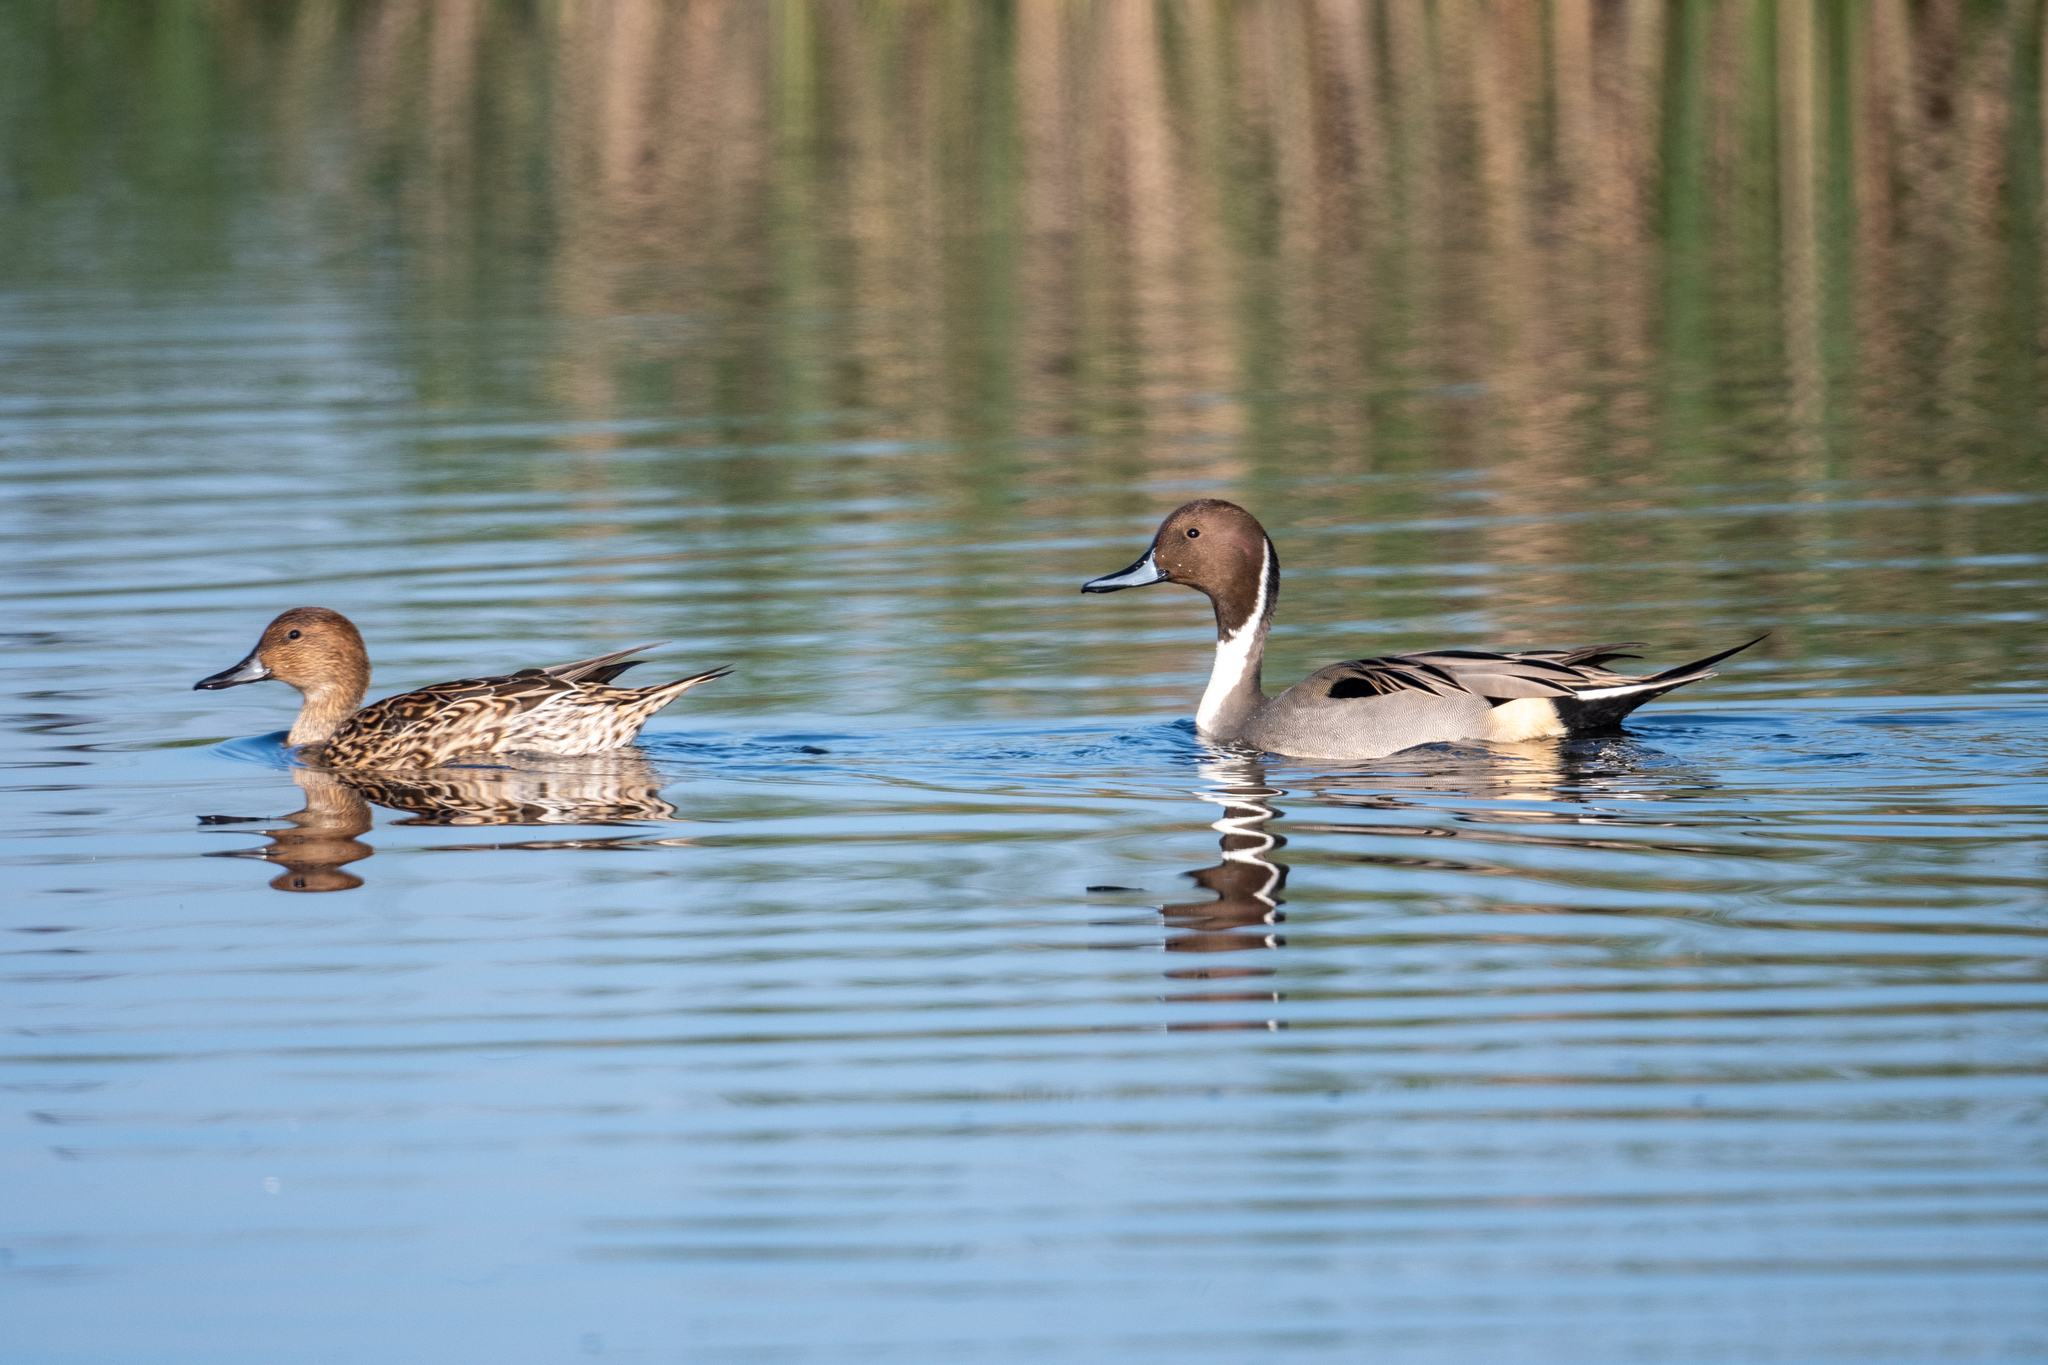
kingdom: Animalia
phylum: Chordata
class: Aves
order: Anseriformes
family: Anatidae
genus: Anas
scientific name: Anas acuta
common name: Northern pintail
